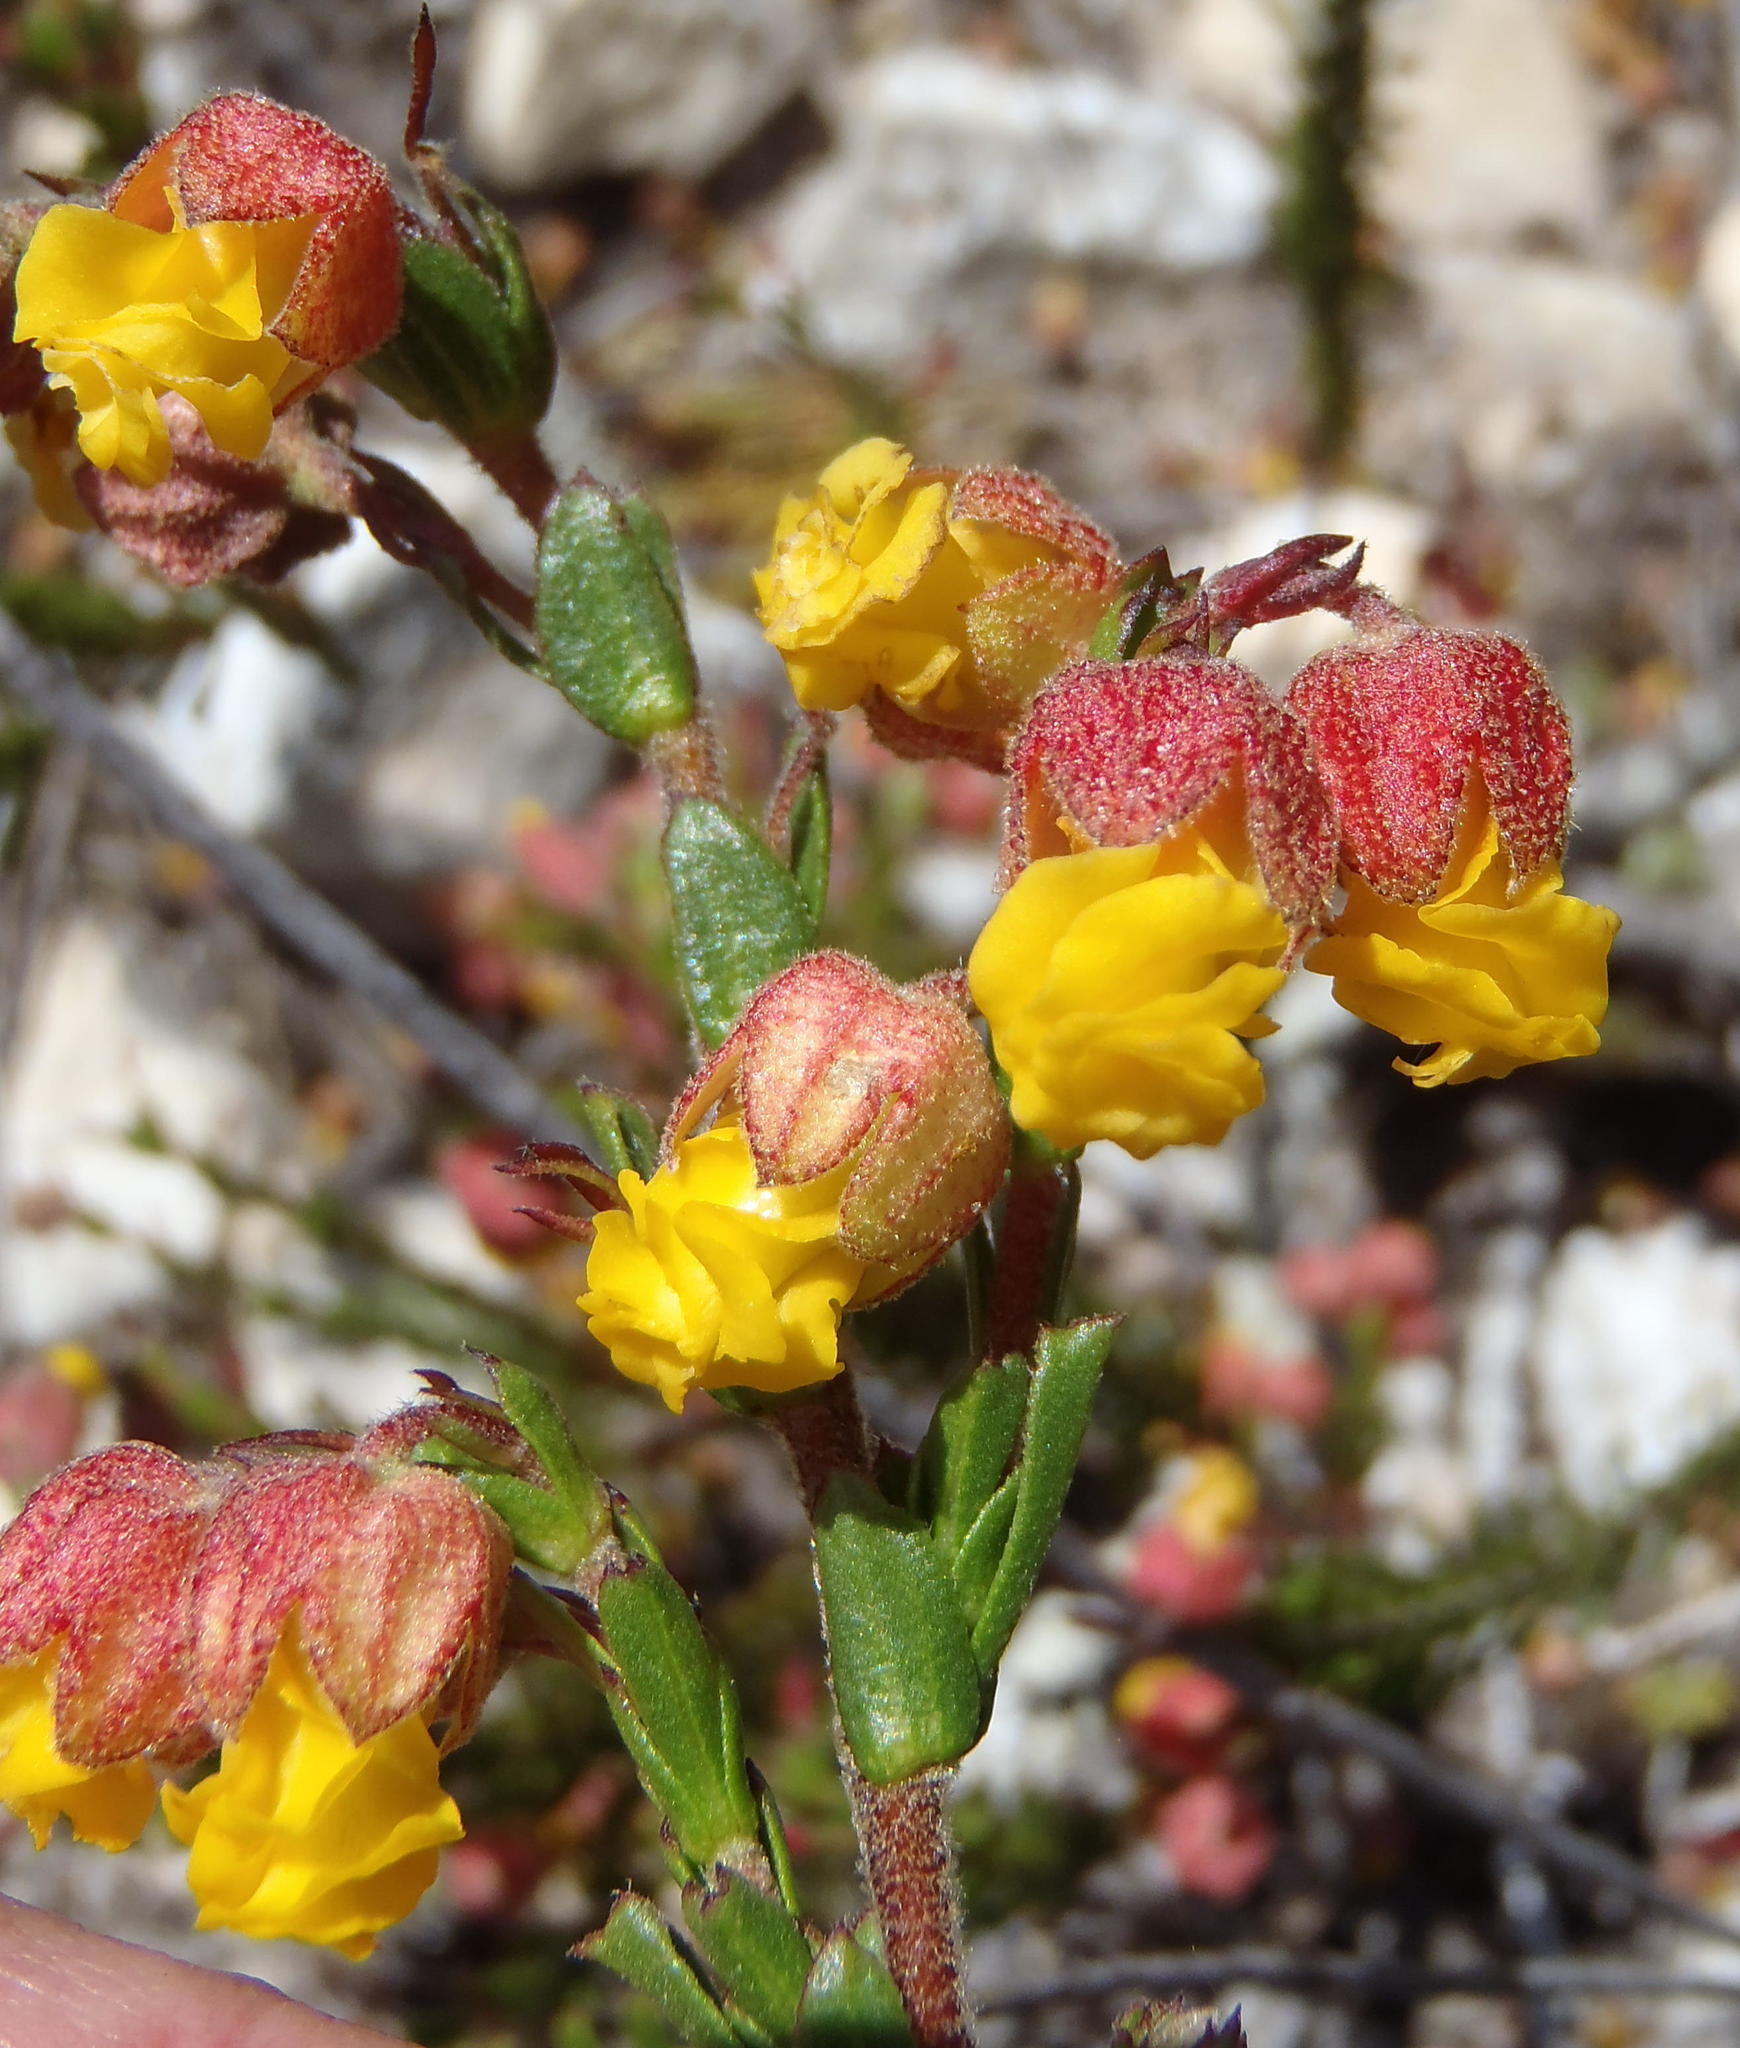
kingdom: Plantae
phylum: Tracheophyta
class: Magnoliopsida
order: Malvales
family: Malvaceae
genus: Hermannia
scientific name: Hermannia concinnifolia
